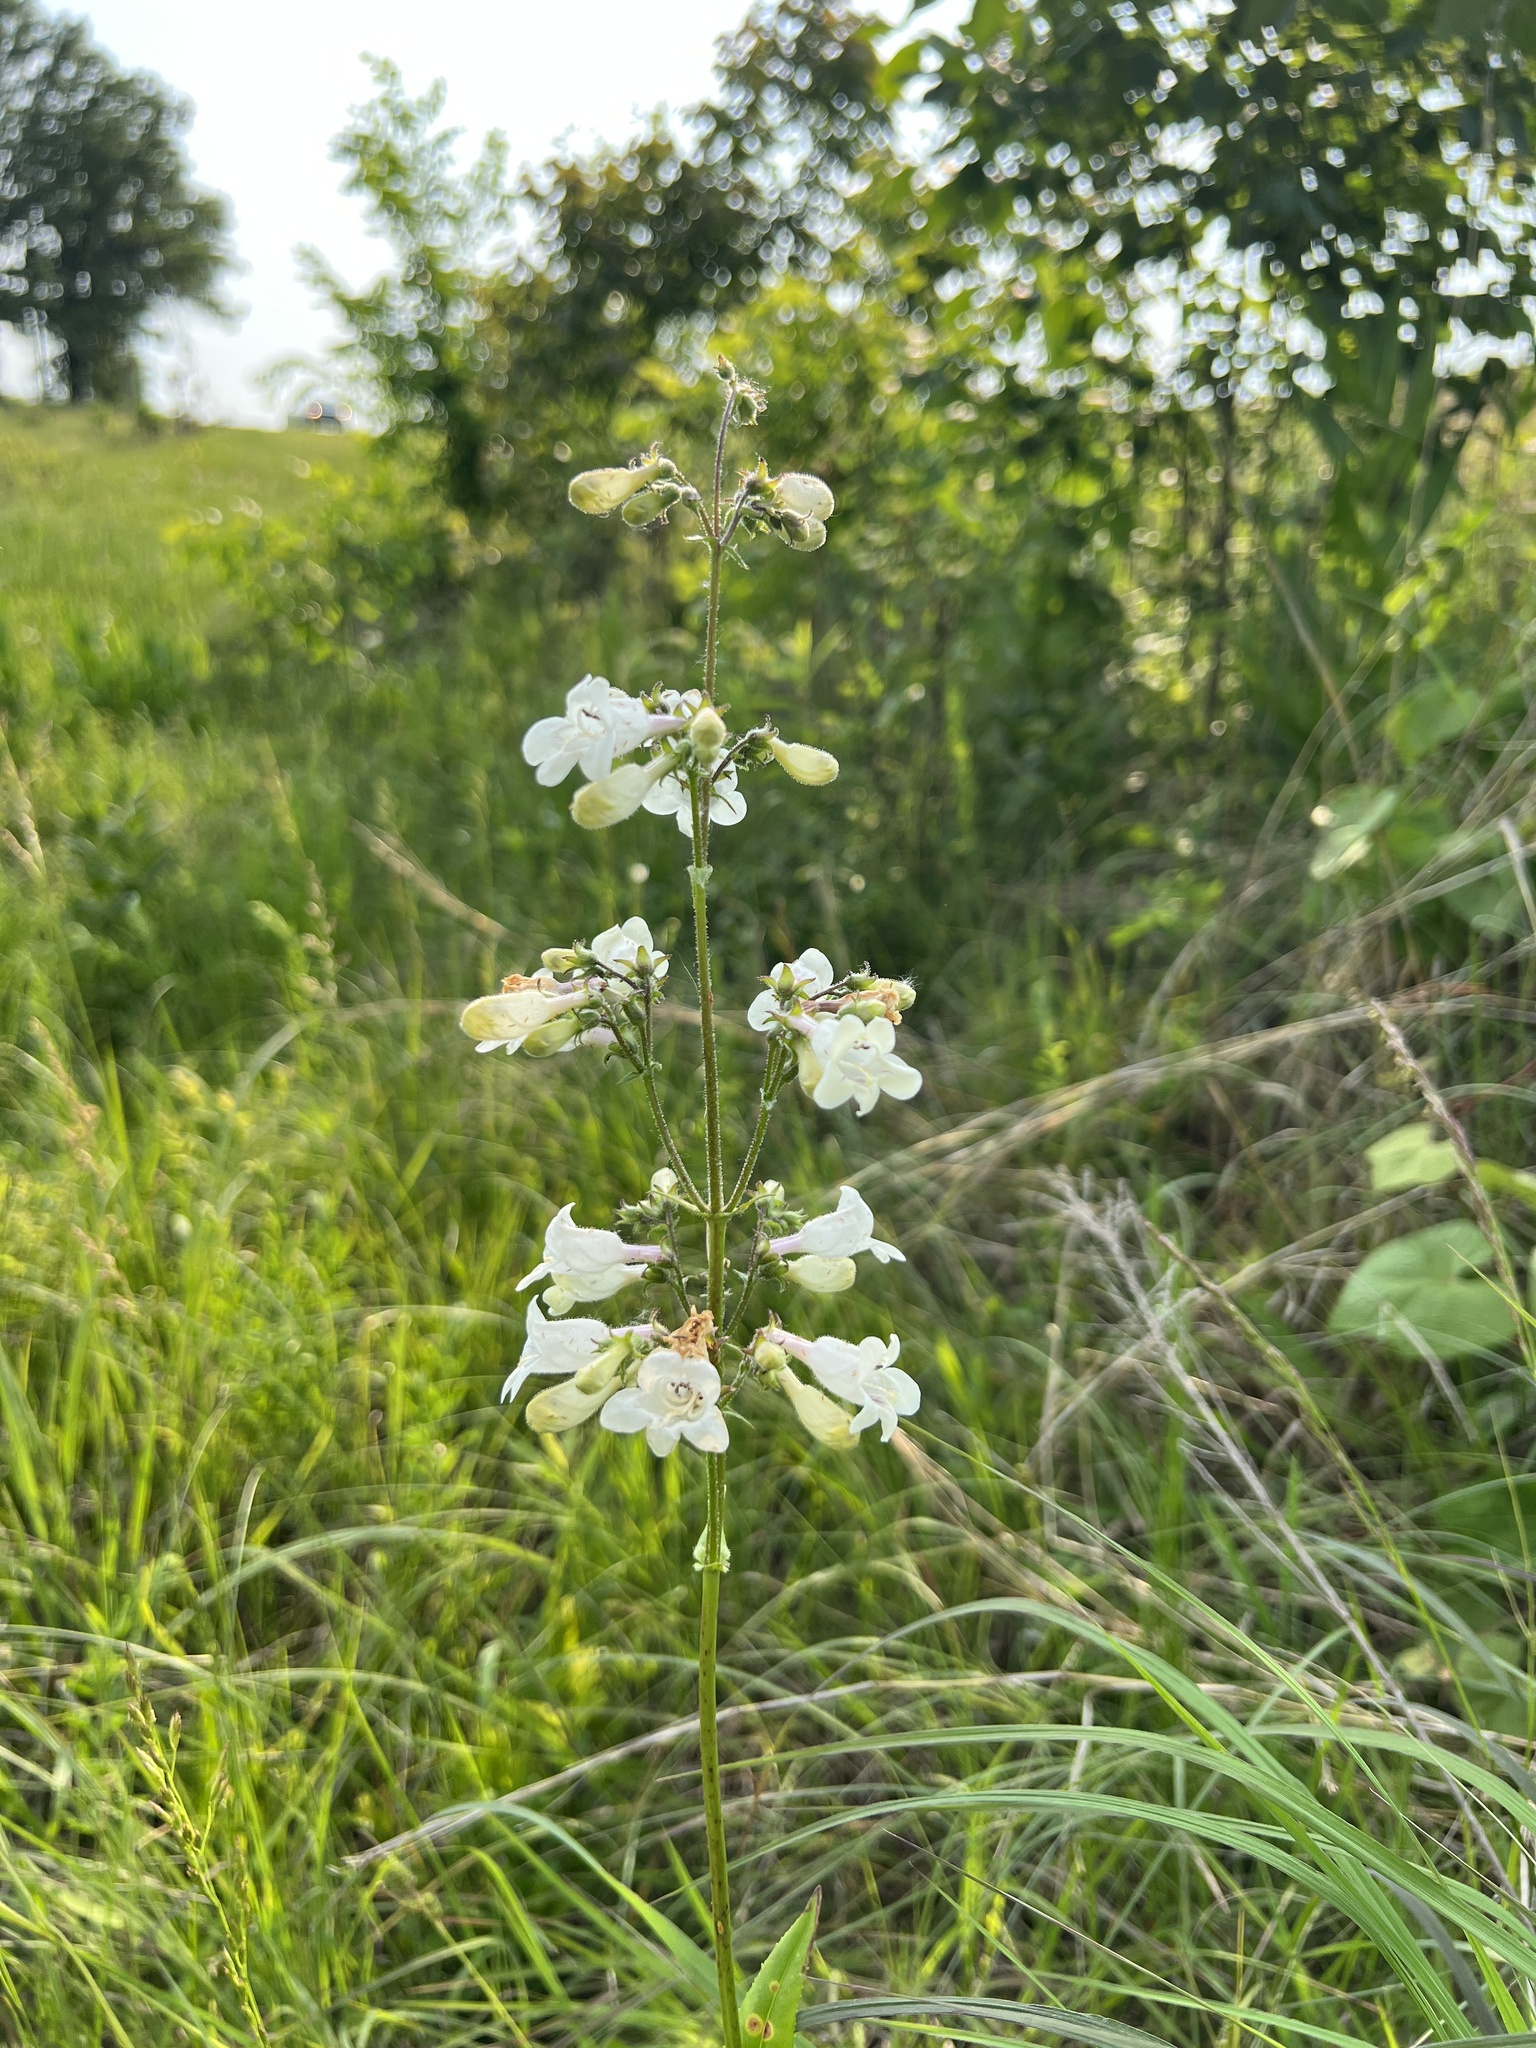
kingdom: Plantae
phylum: Tracheophyta
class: Magnoliopsida
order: Lamiales
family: Plantaginaceae
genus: Penstemon
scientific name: Penstemon digitalis
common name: Foxglove beardtongue
